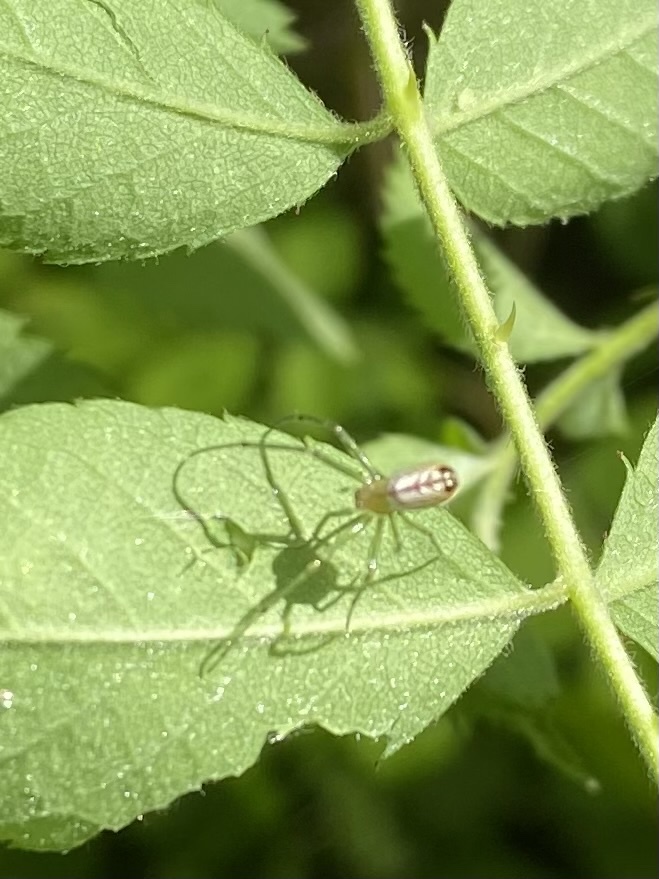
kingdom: Animalia
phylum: Arthropoda
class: Arachnida
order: Araneae
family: Tetragnathidae
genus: Leucauge
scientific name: Leucauge venusta
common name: Longjawed orb weavers
